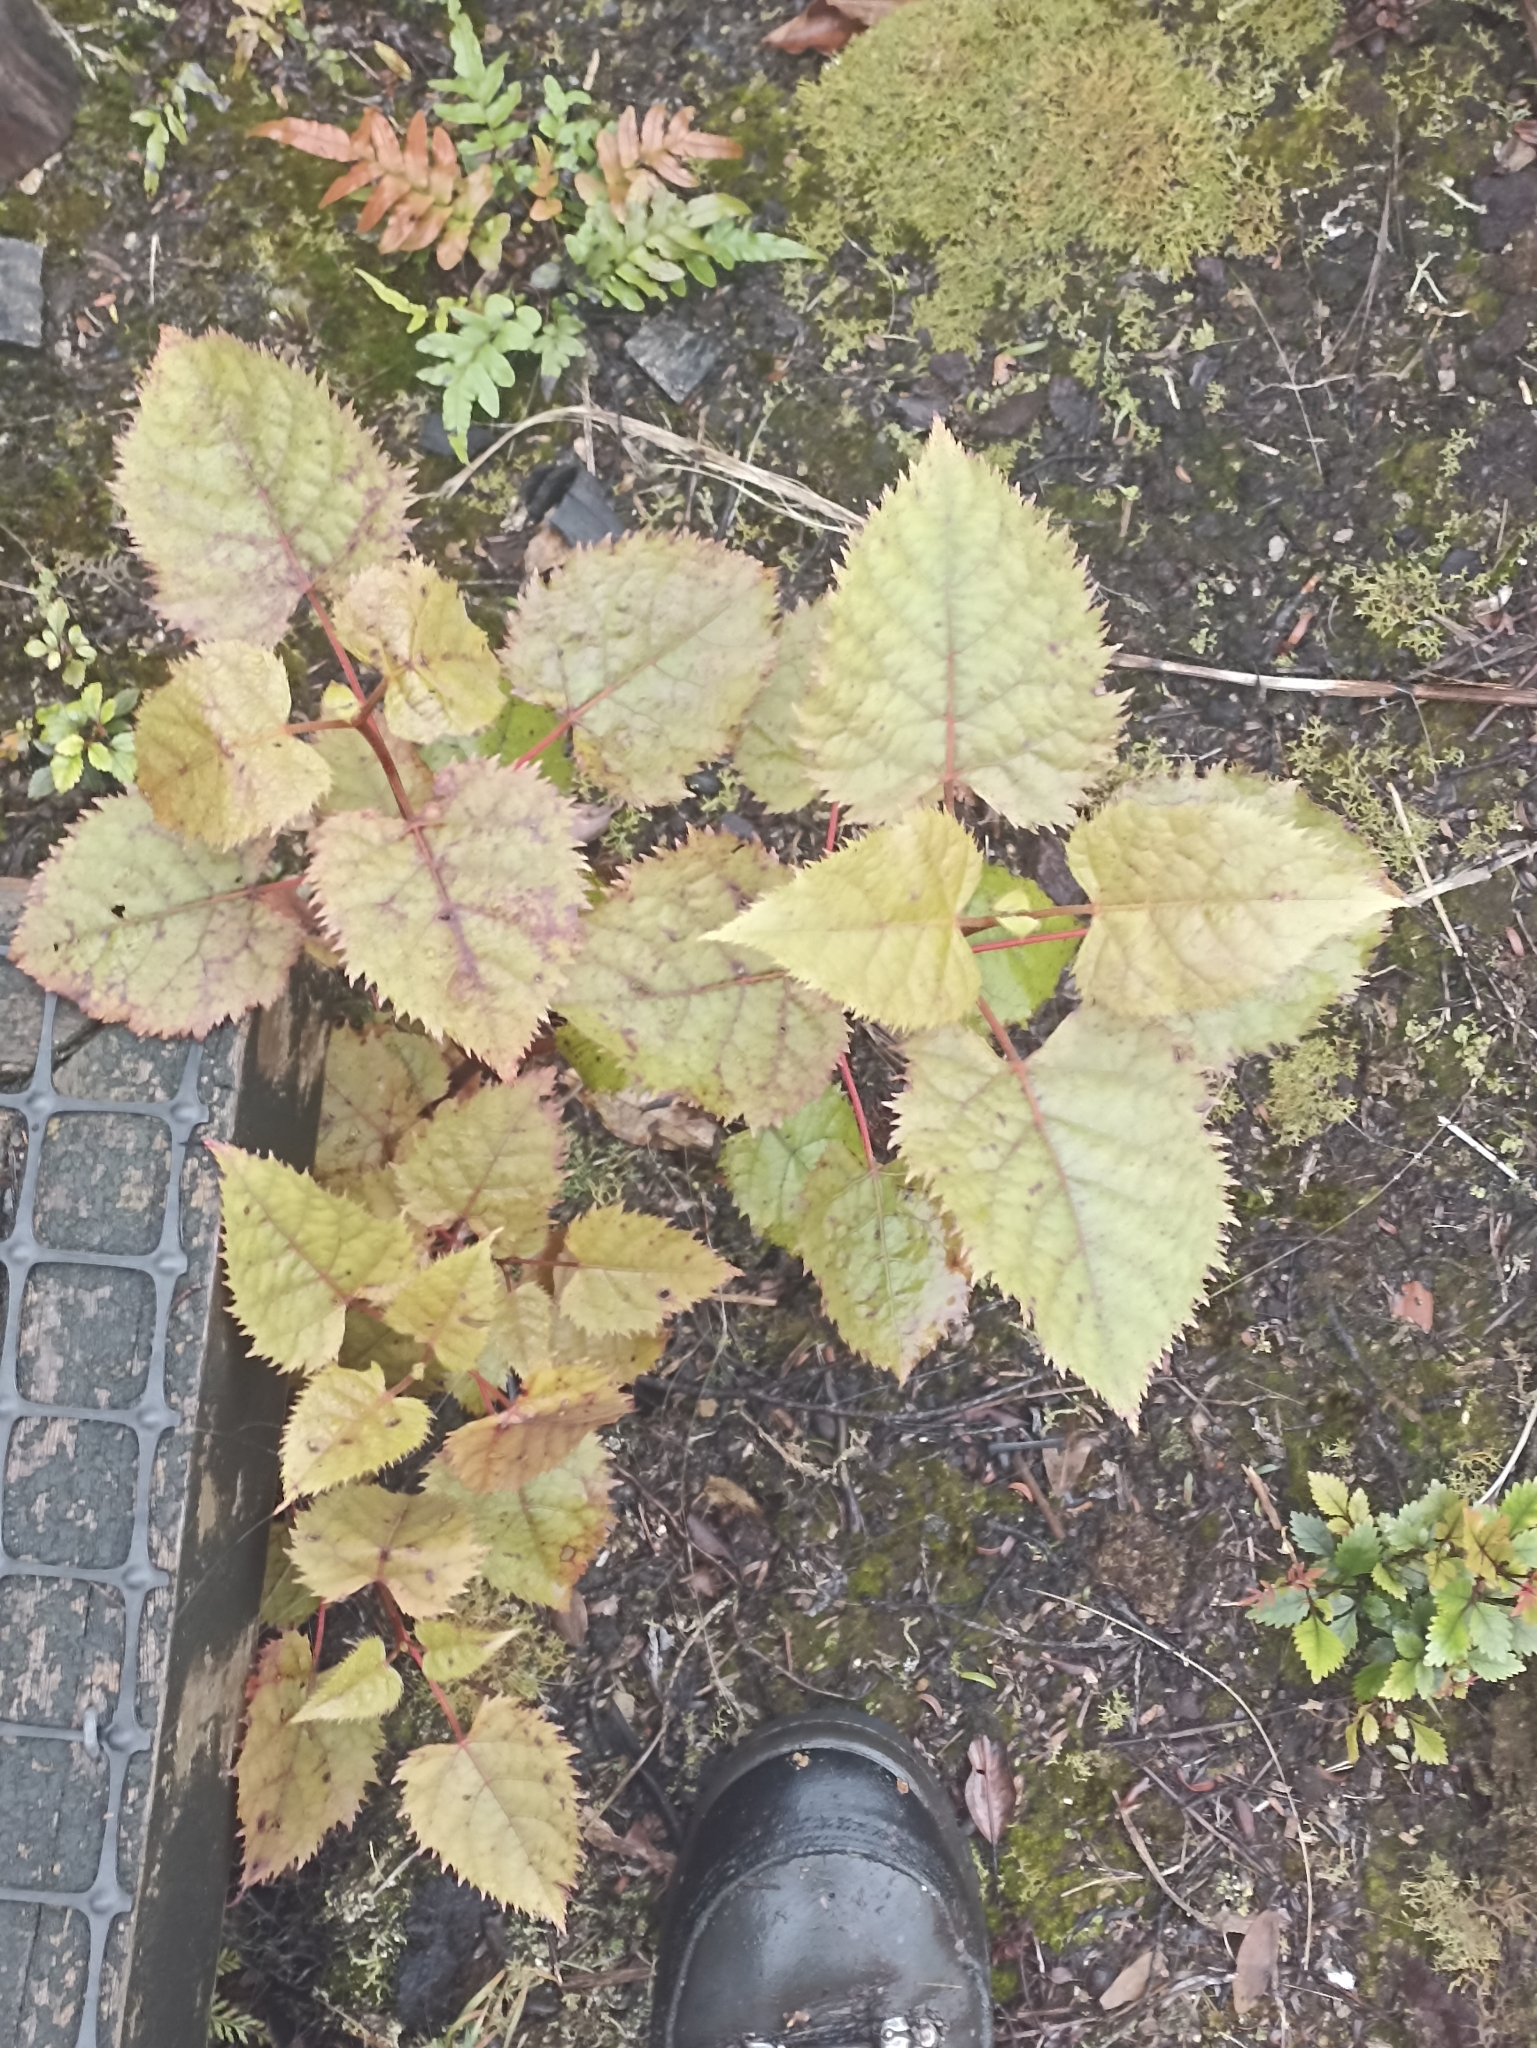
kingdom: Plantae
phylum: Tracheophyta
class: Magnoliopsida
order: Oxalidales
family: Elaeocarpaceae
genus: Aristotelia
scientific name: Aristotelia serrata
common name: New zealand wineberry
